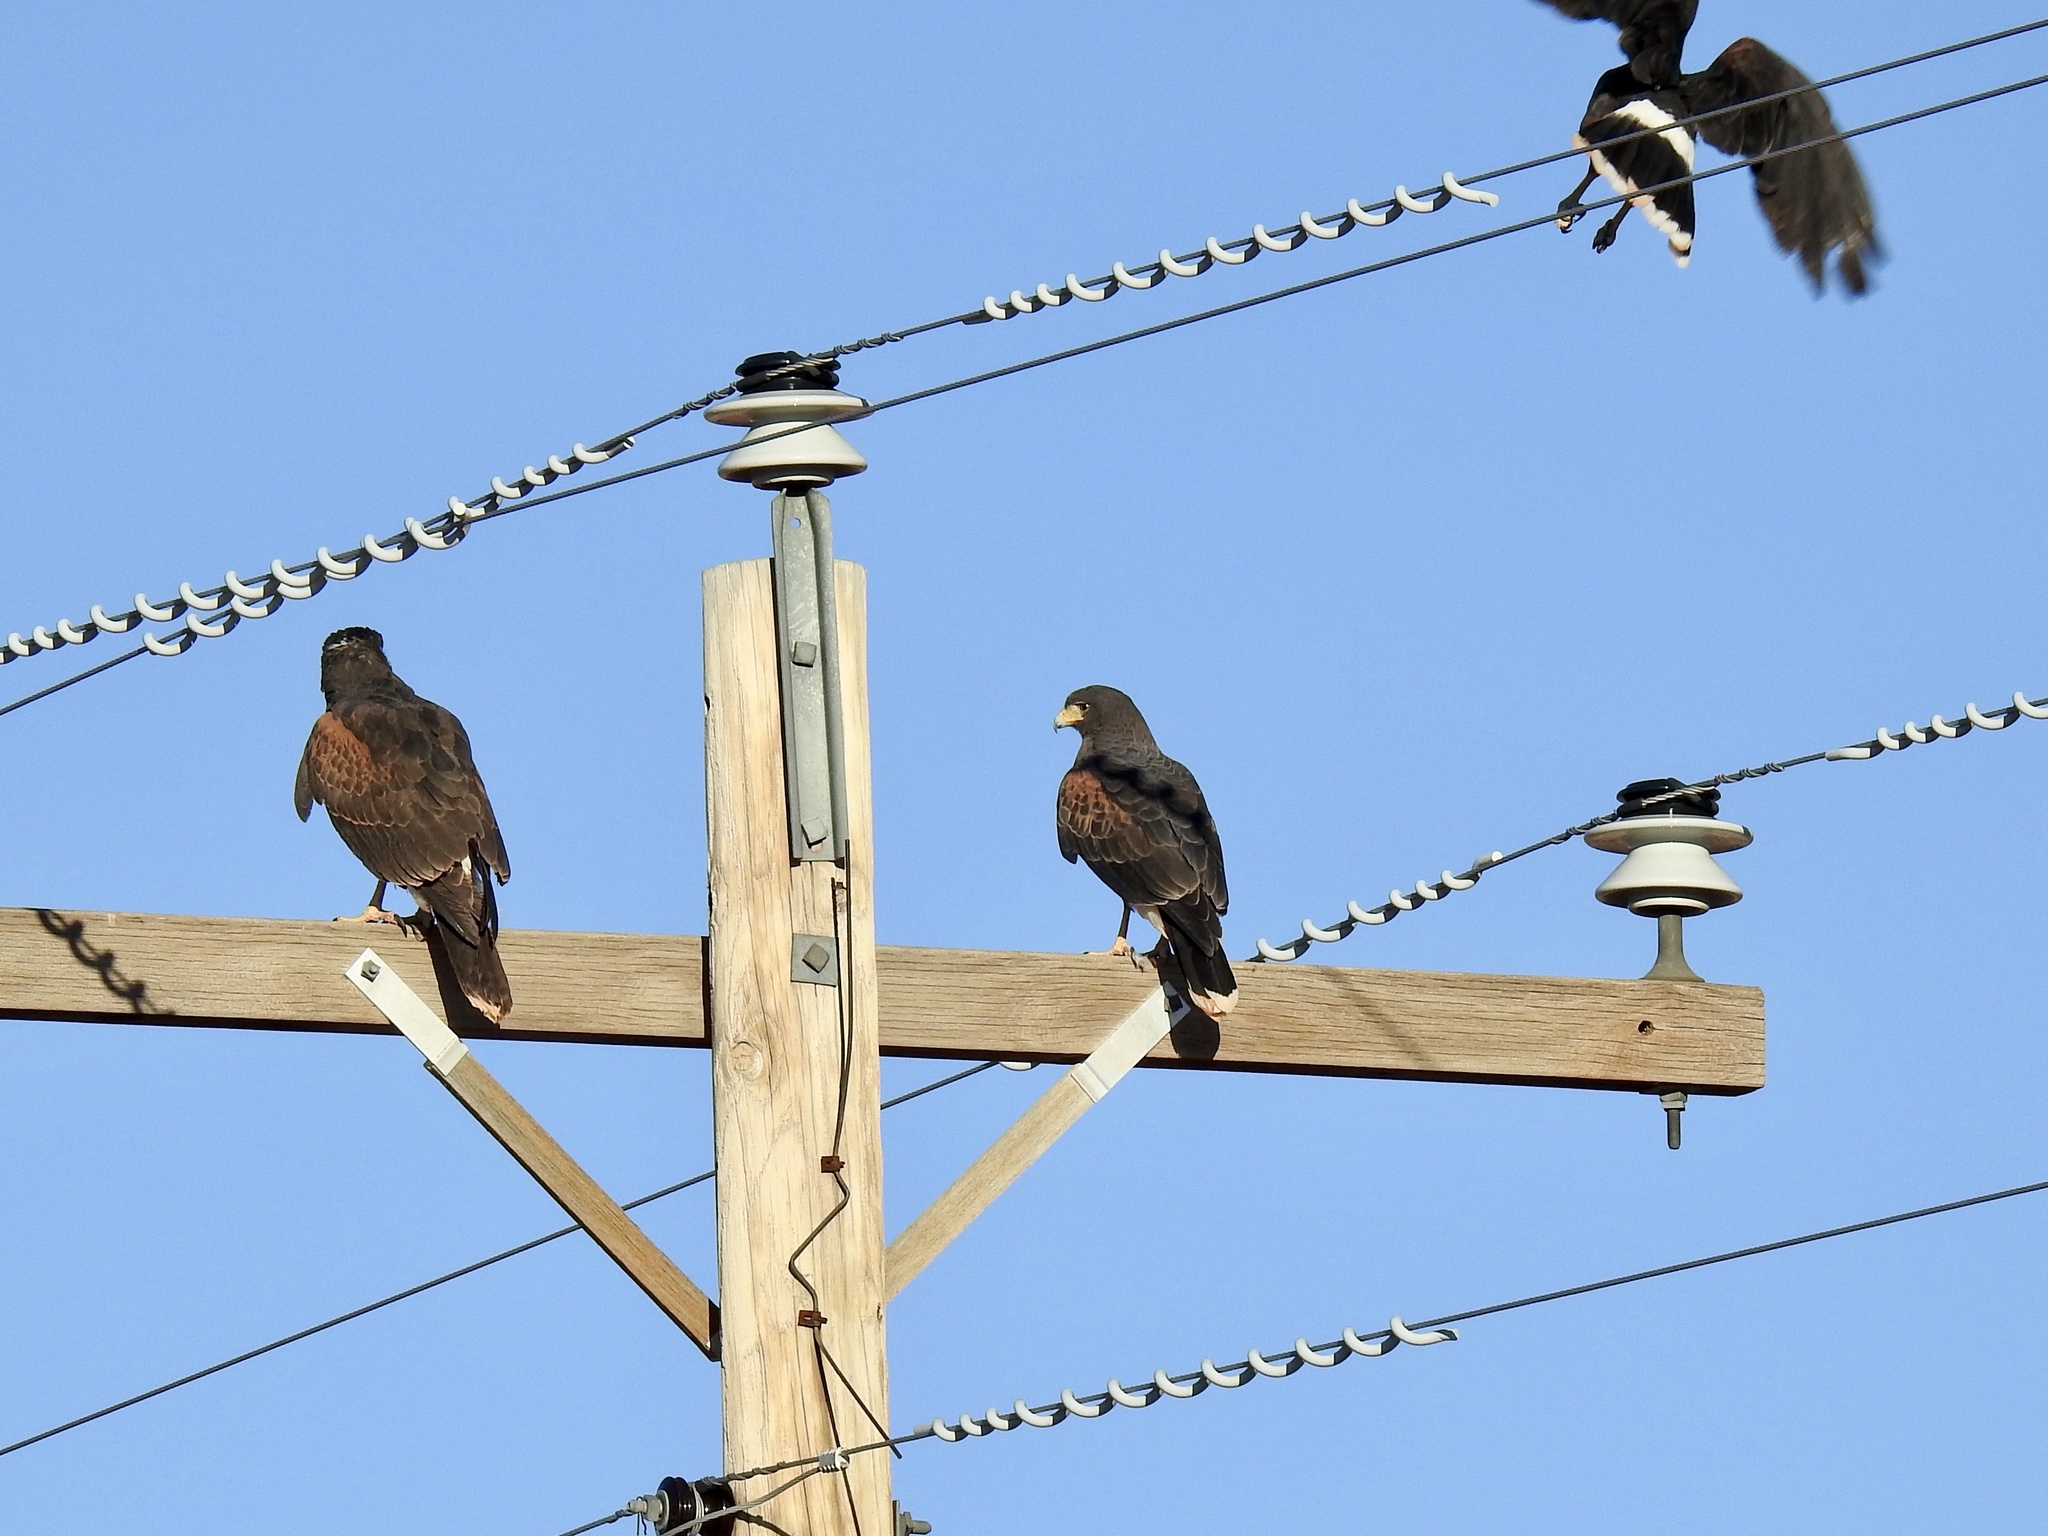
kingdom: Animalia
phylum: Chordata
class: Aves
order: Accipitriformes
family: Accipitridae
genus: Parabuteo
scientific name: Parabuteo unicinctus
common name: Harris's hawk
